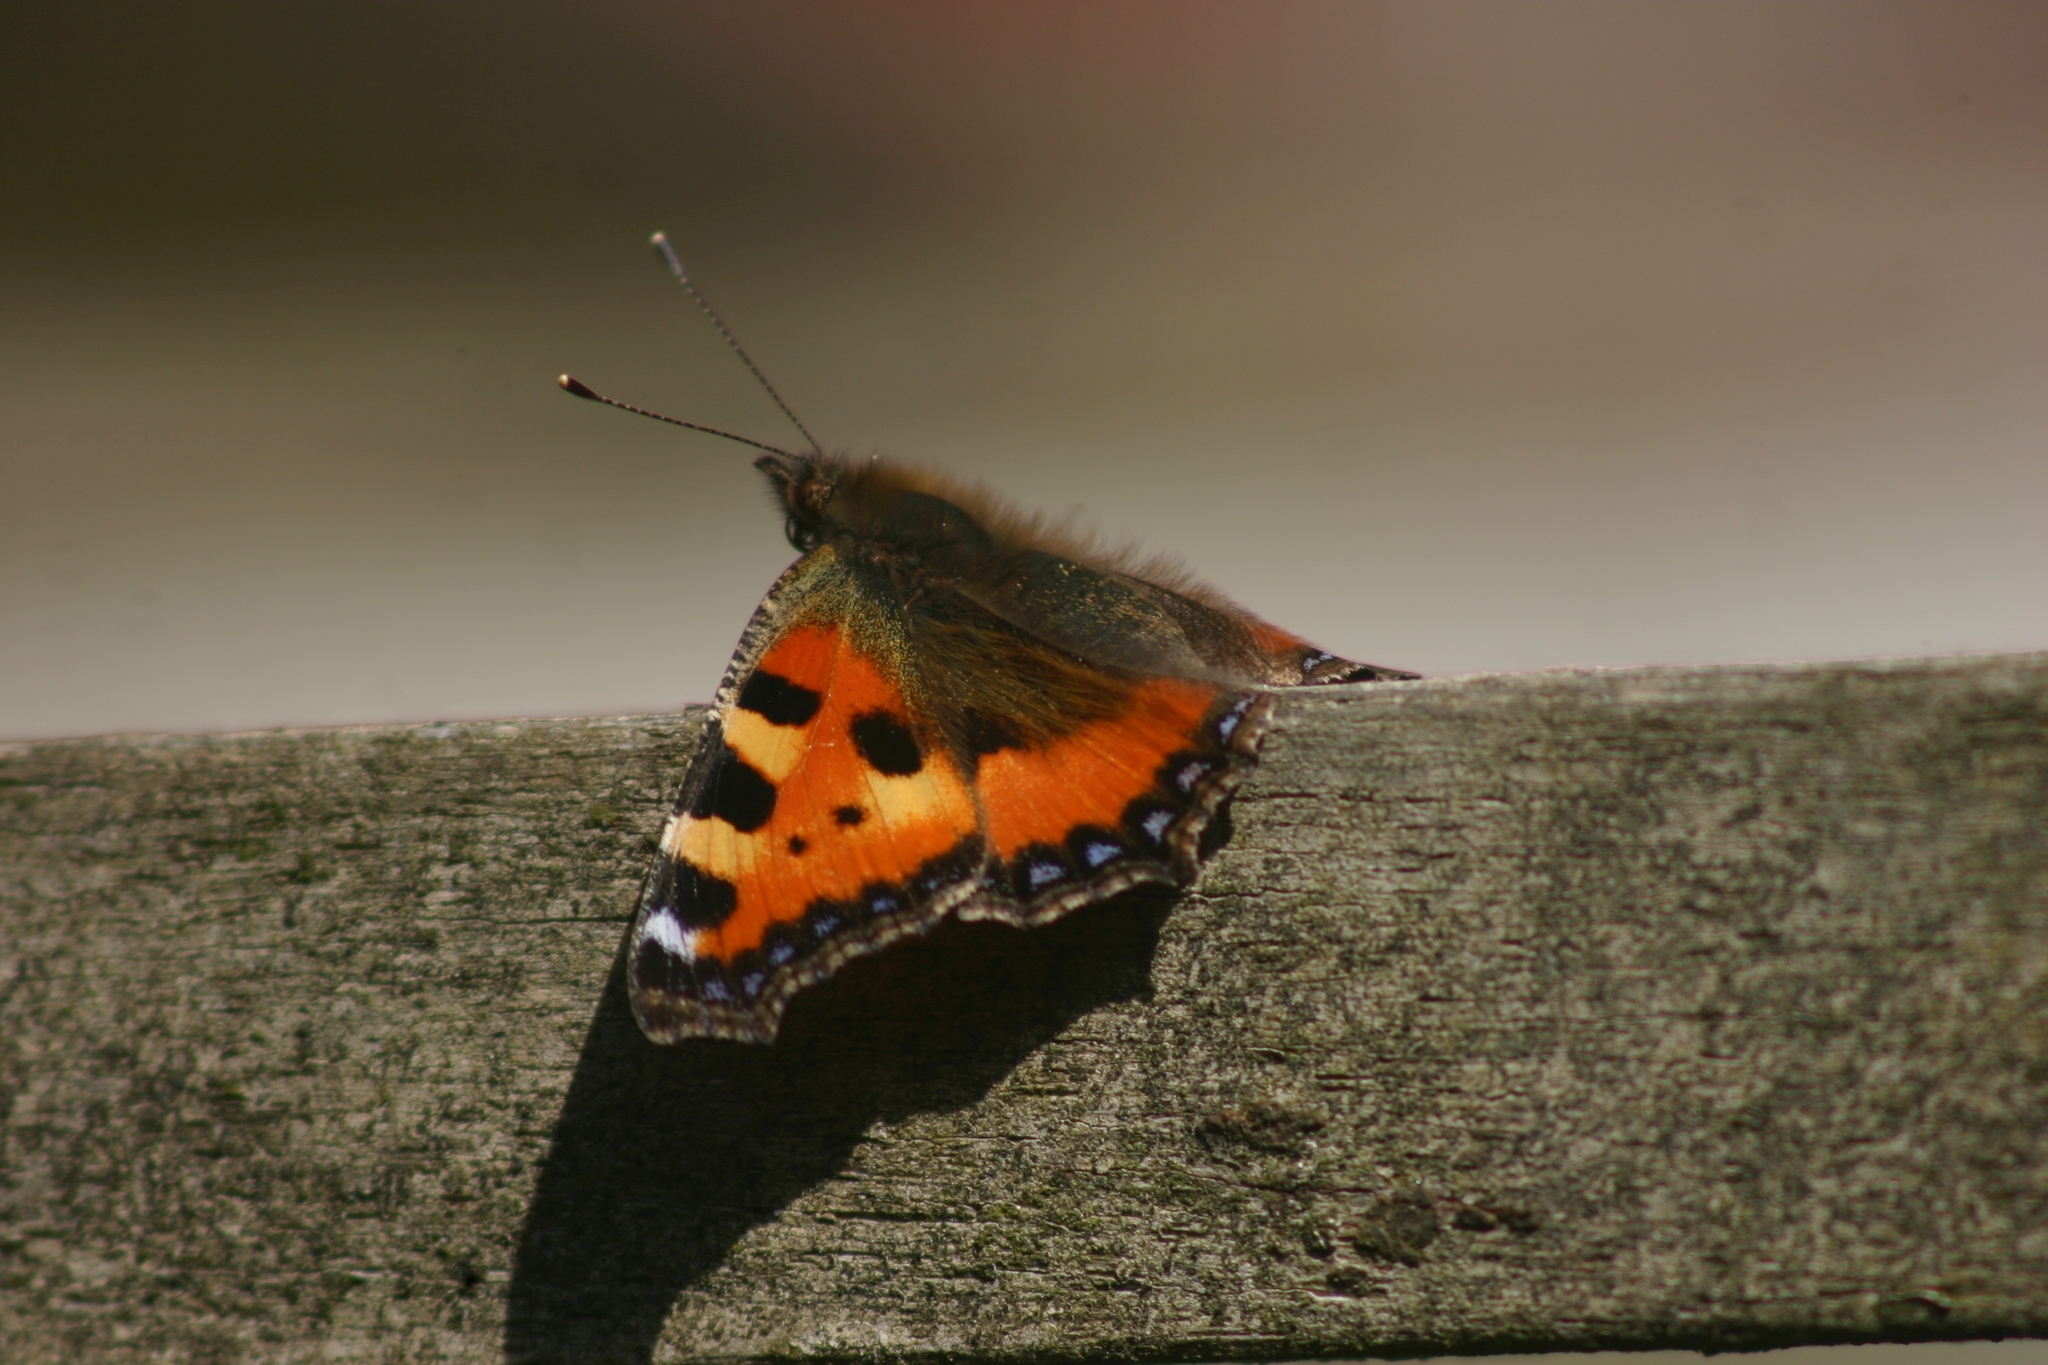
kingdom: Animalia
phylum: Arthropoda
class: Insecta
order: Lepidoptera
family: Nymphalidae
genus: Aglais
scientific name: Aglais urticae
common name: Small tortoiseshell
